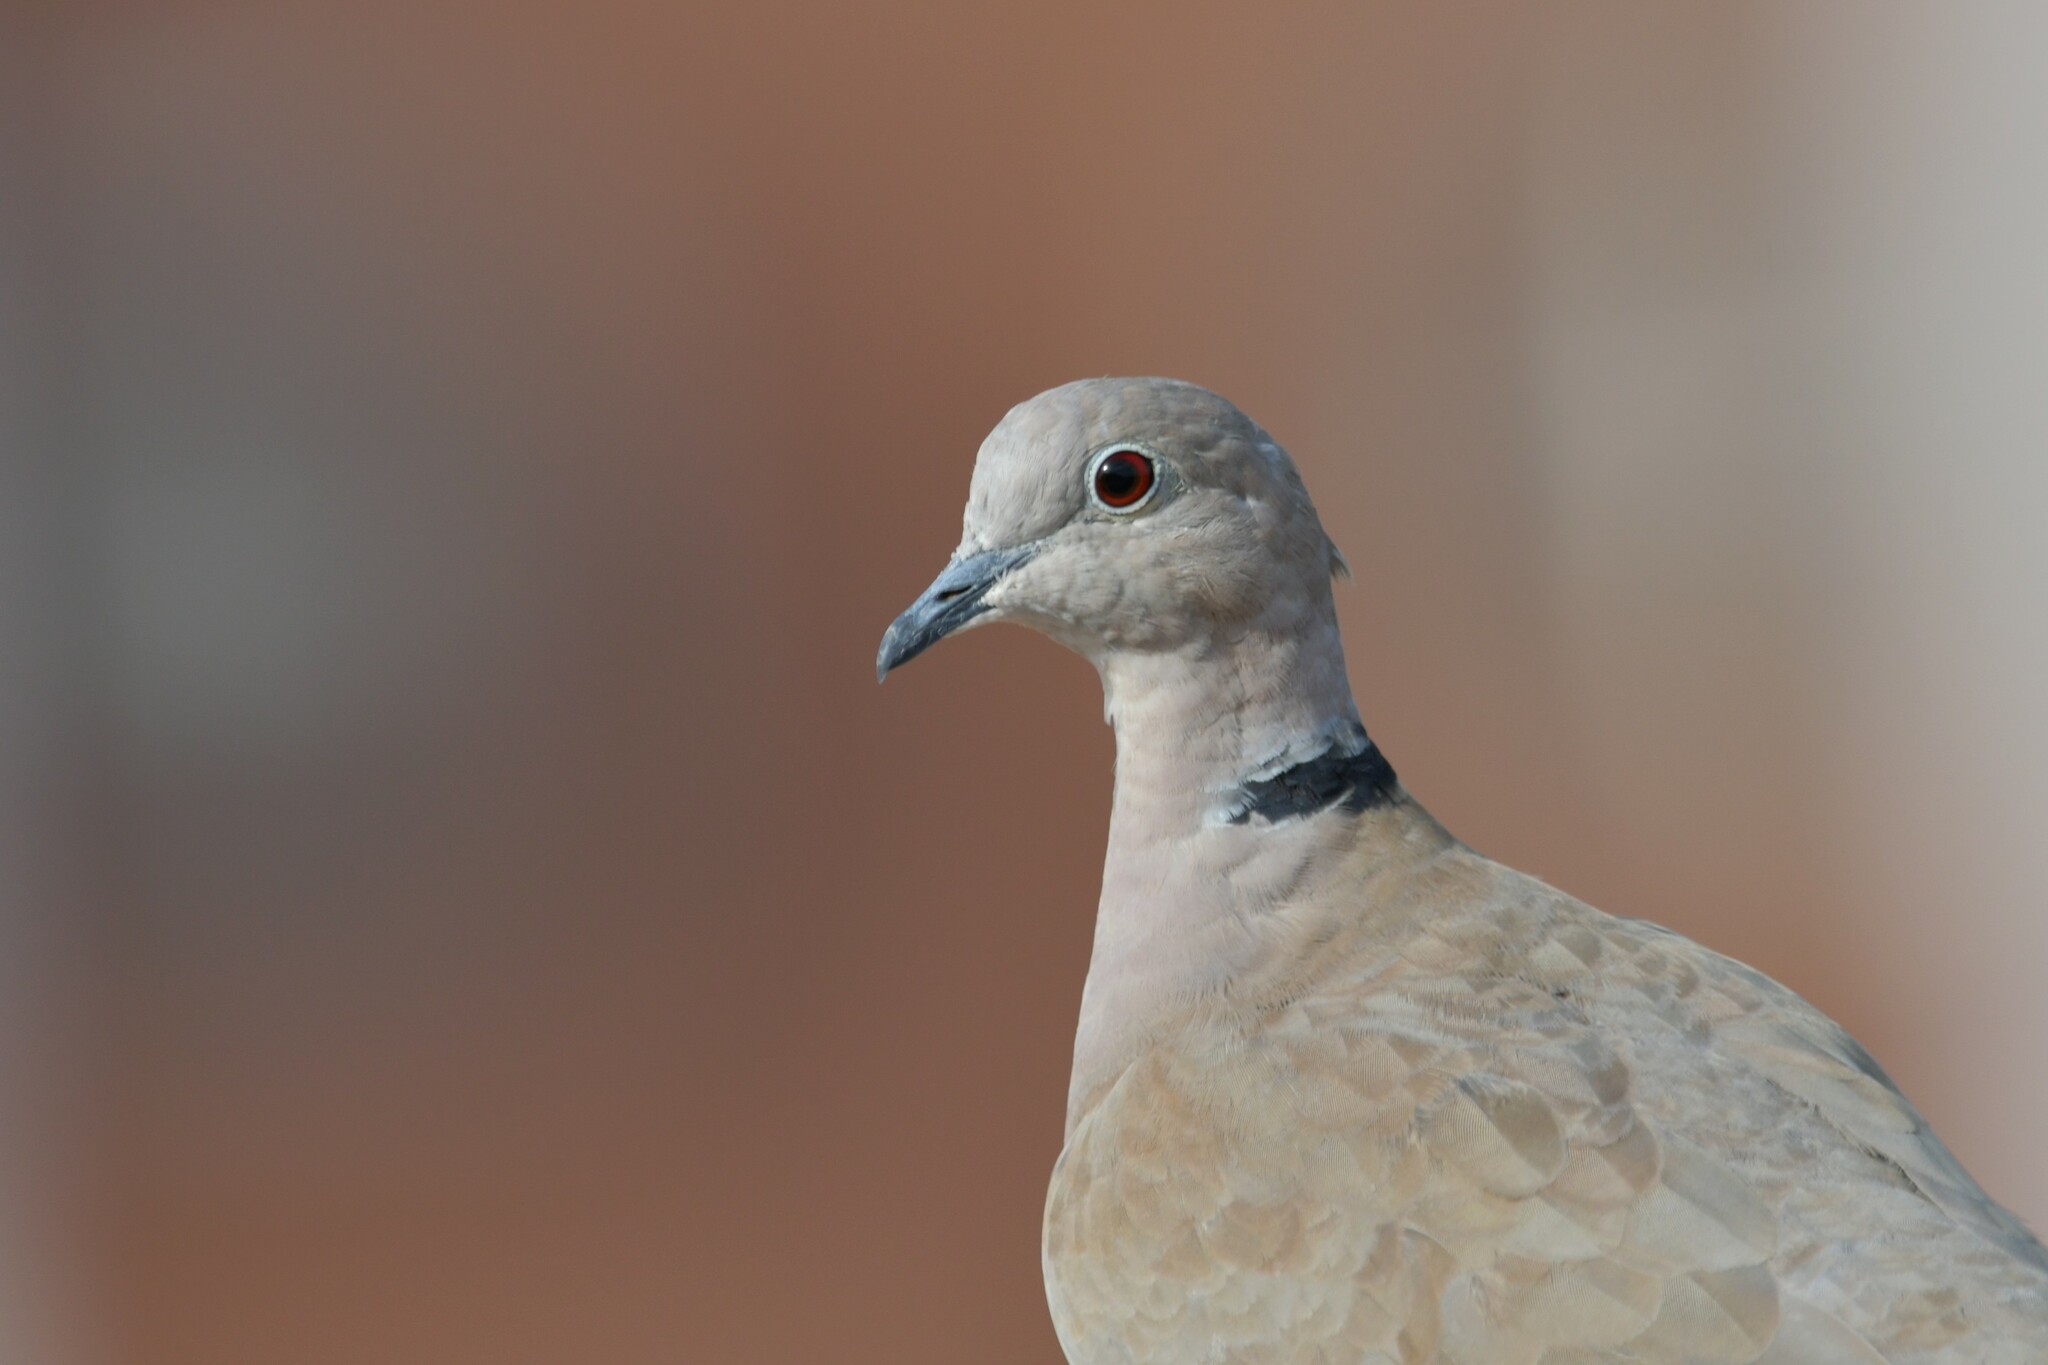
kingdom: Animalia
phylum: Chordata
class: Aves
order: Columbiformes
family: Columbidae
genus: Streptopelia
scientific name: Streptopelia decaocto
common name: Eurasian collared dove
